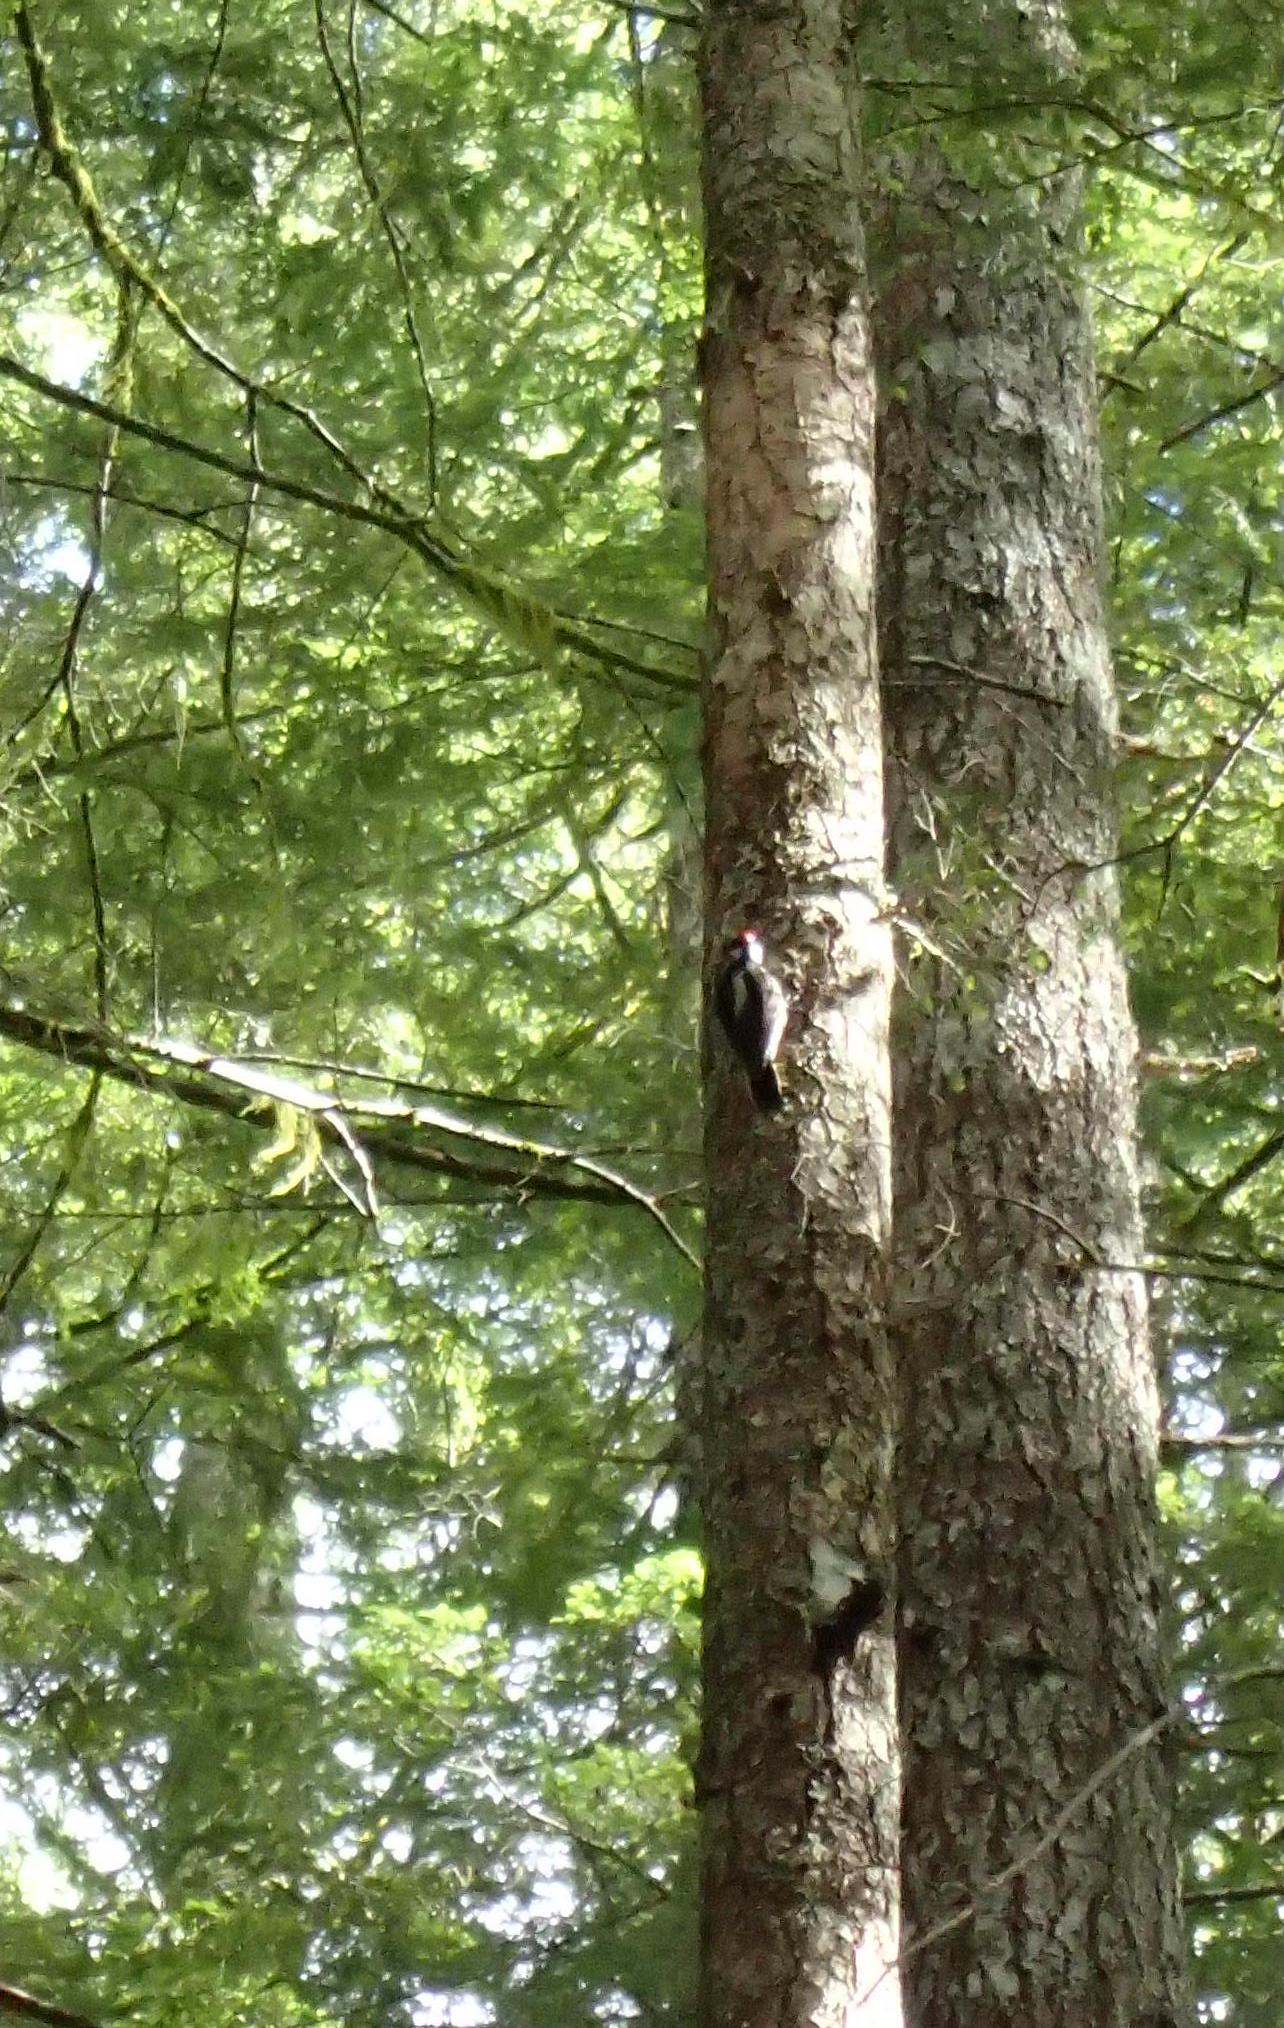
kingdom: Animalia
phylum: Chordata
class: Aves
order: Piciformes
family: Picidae
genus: Leuconotopicus
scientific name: Leuconotopicus villosus
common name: Hairy woodpecker
